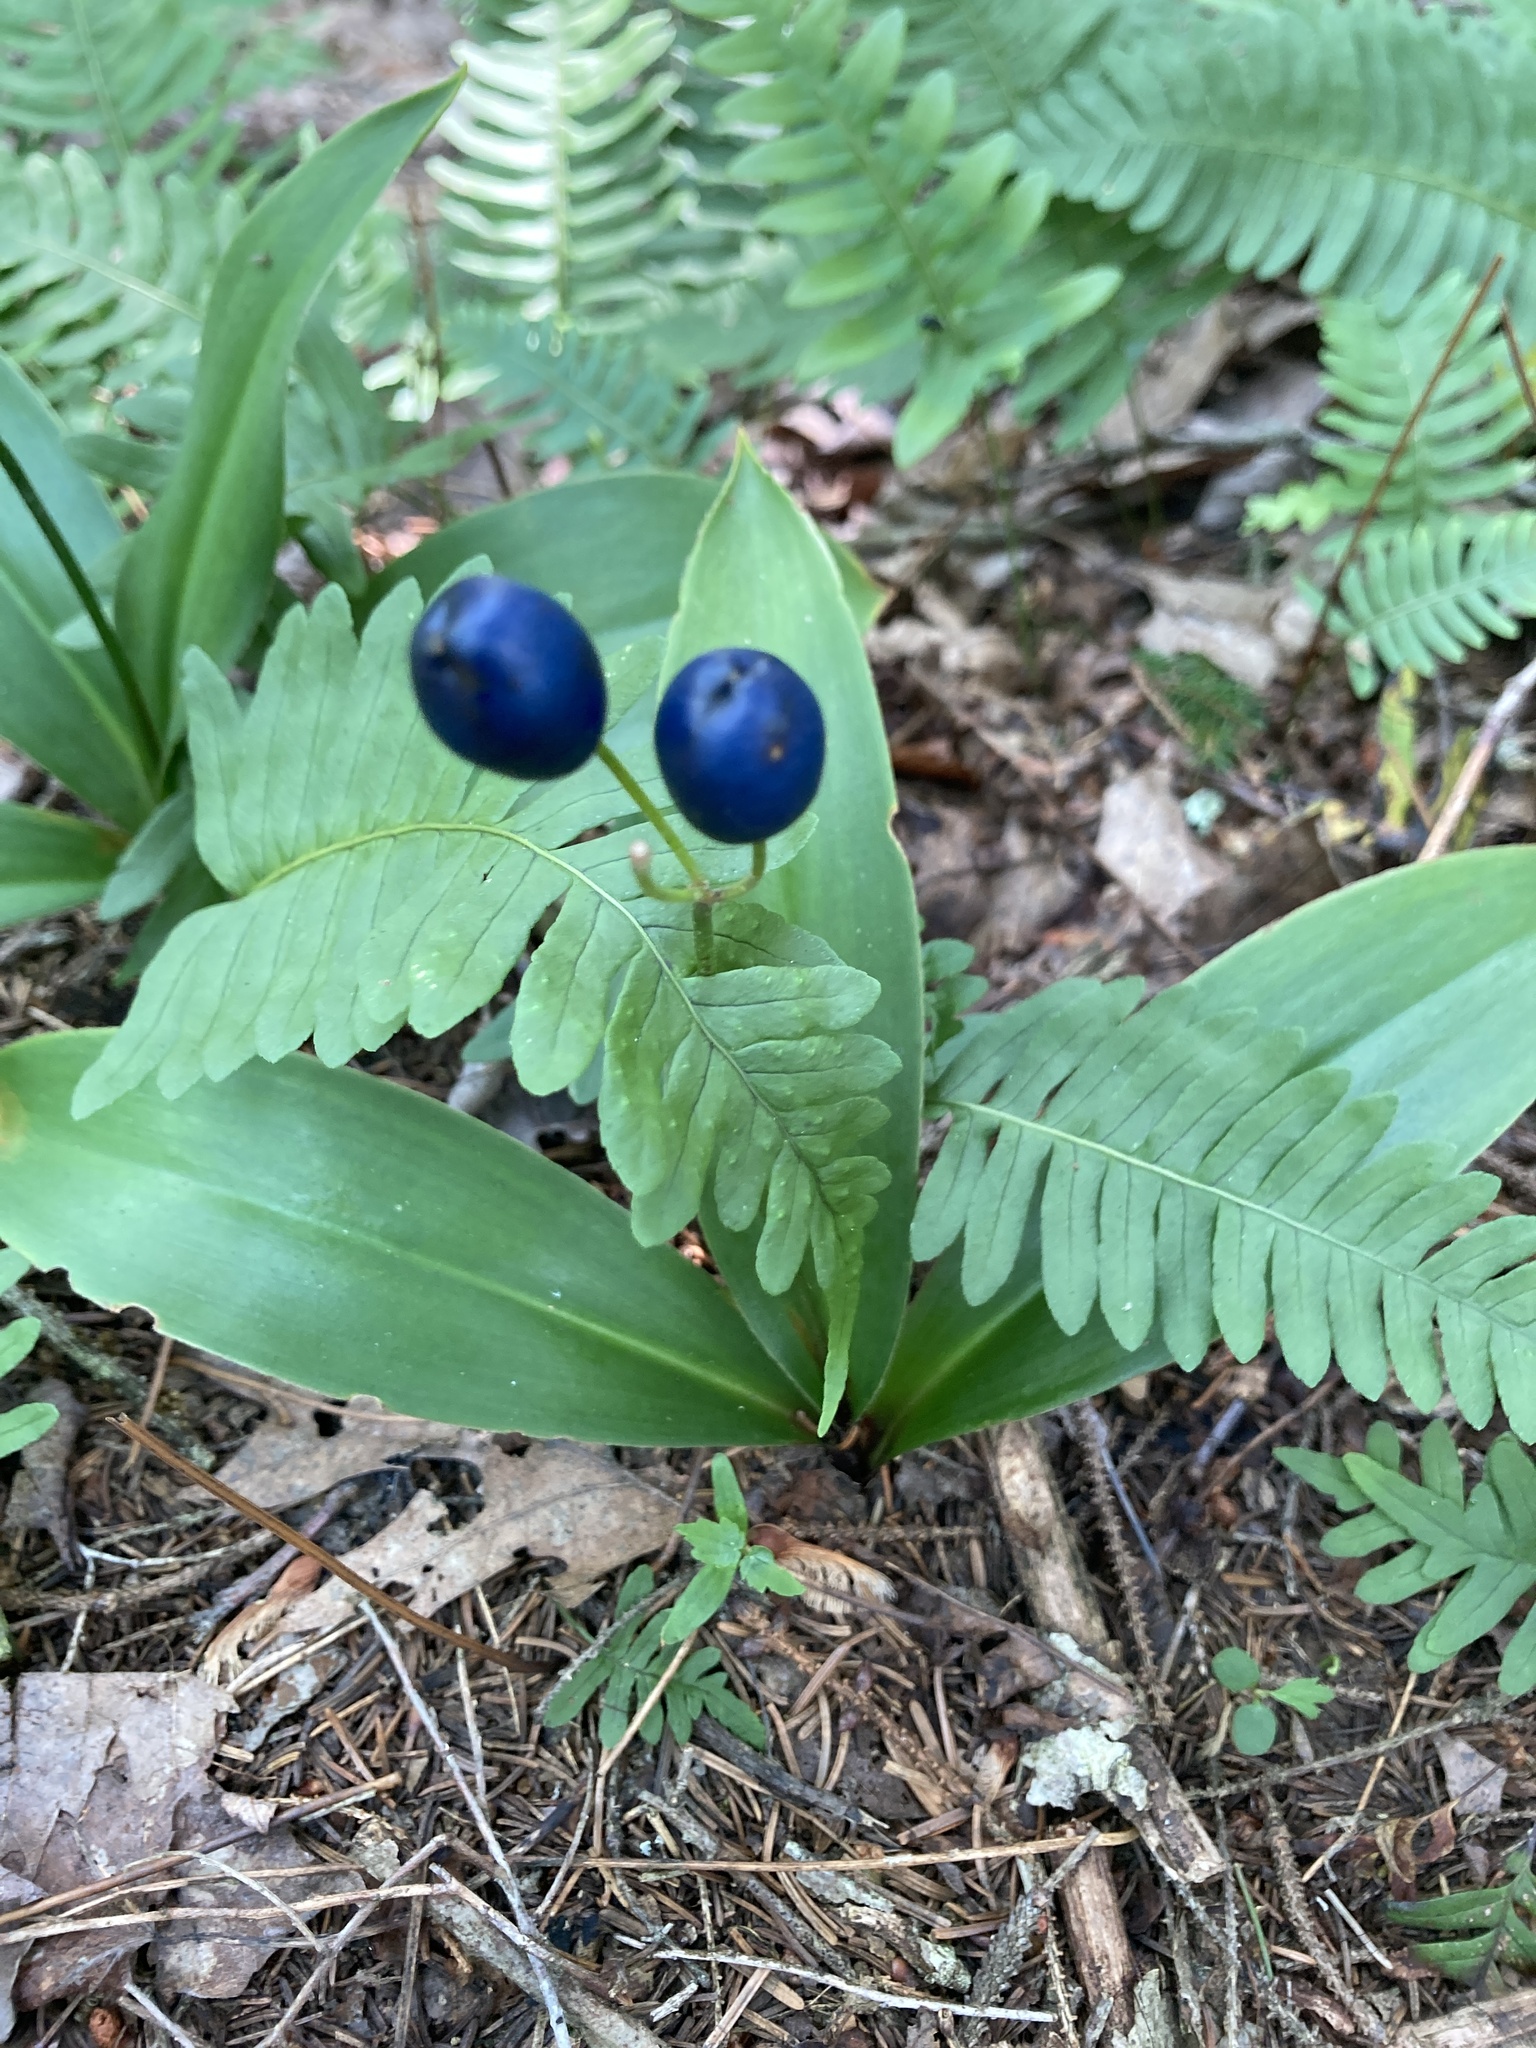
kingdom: Plantae
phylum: Tracheophyta
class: Liliopsida
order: Liliales
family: Liliaceae
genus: Clintonia
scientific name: Clintonia borealis
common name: Yellow clintonia
